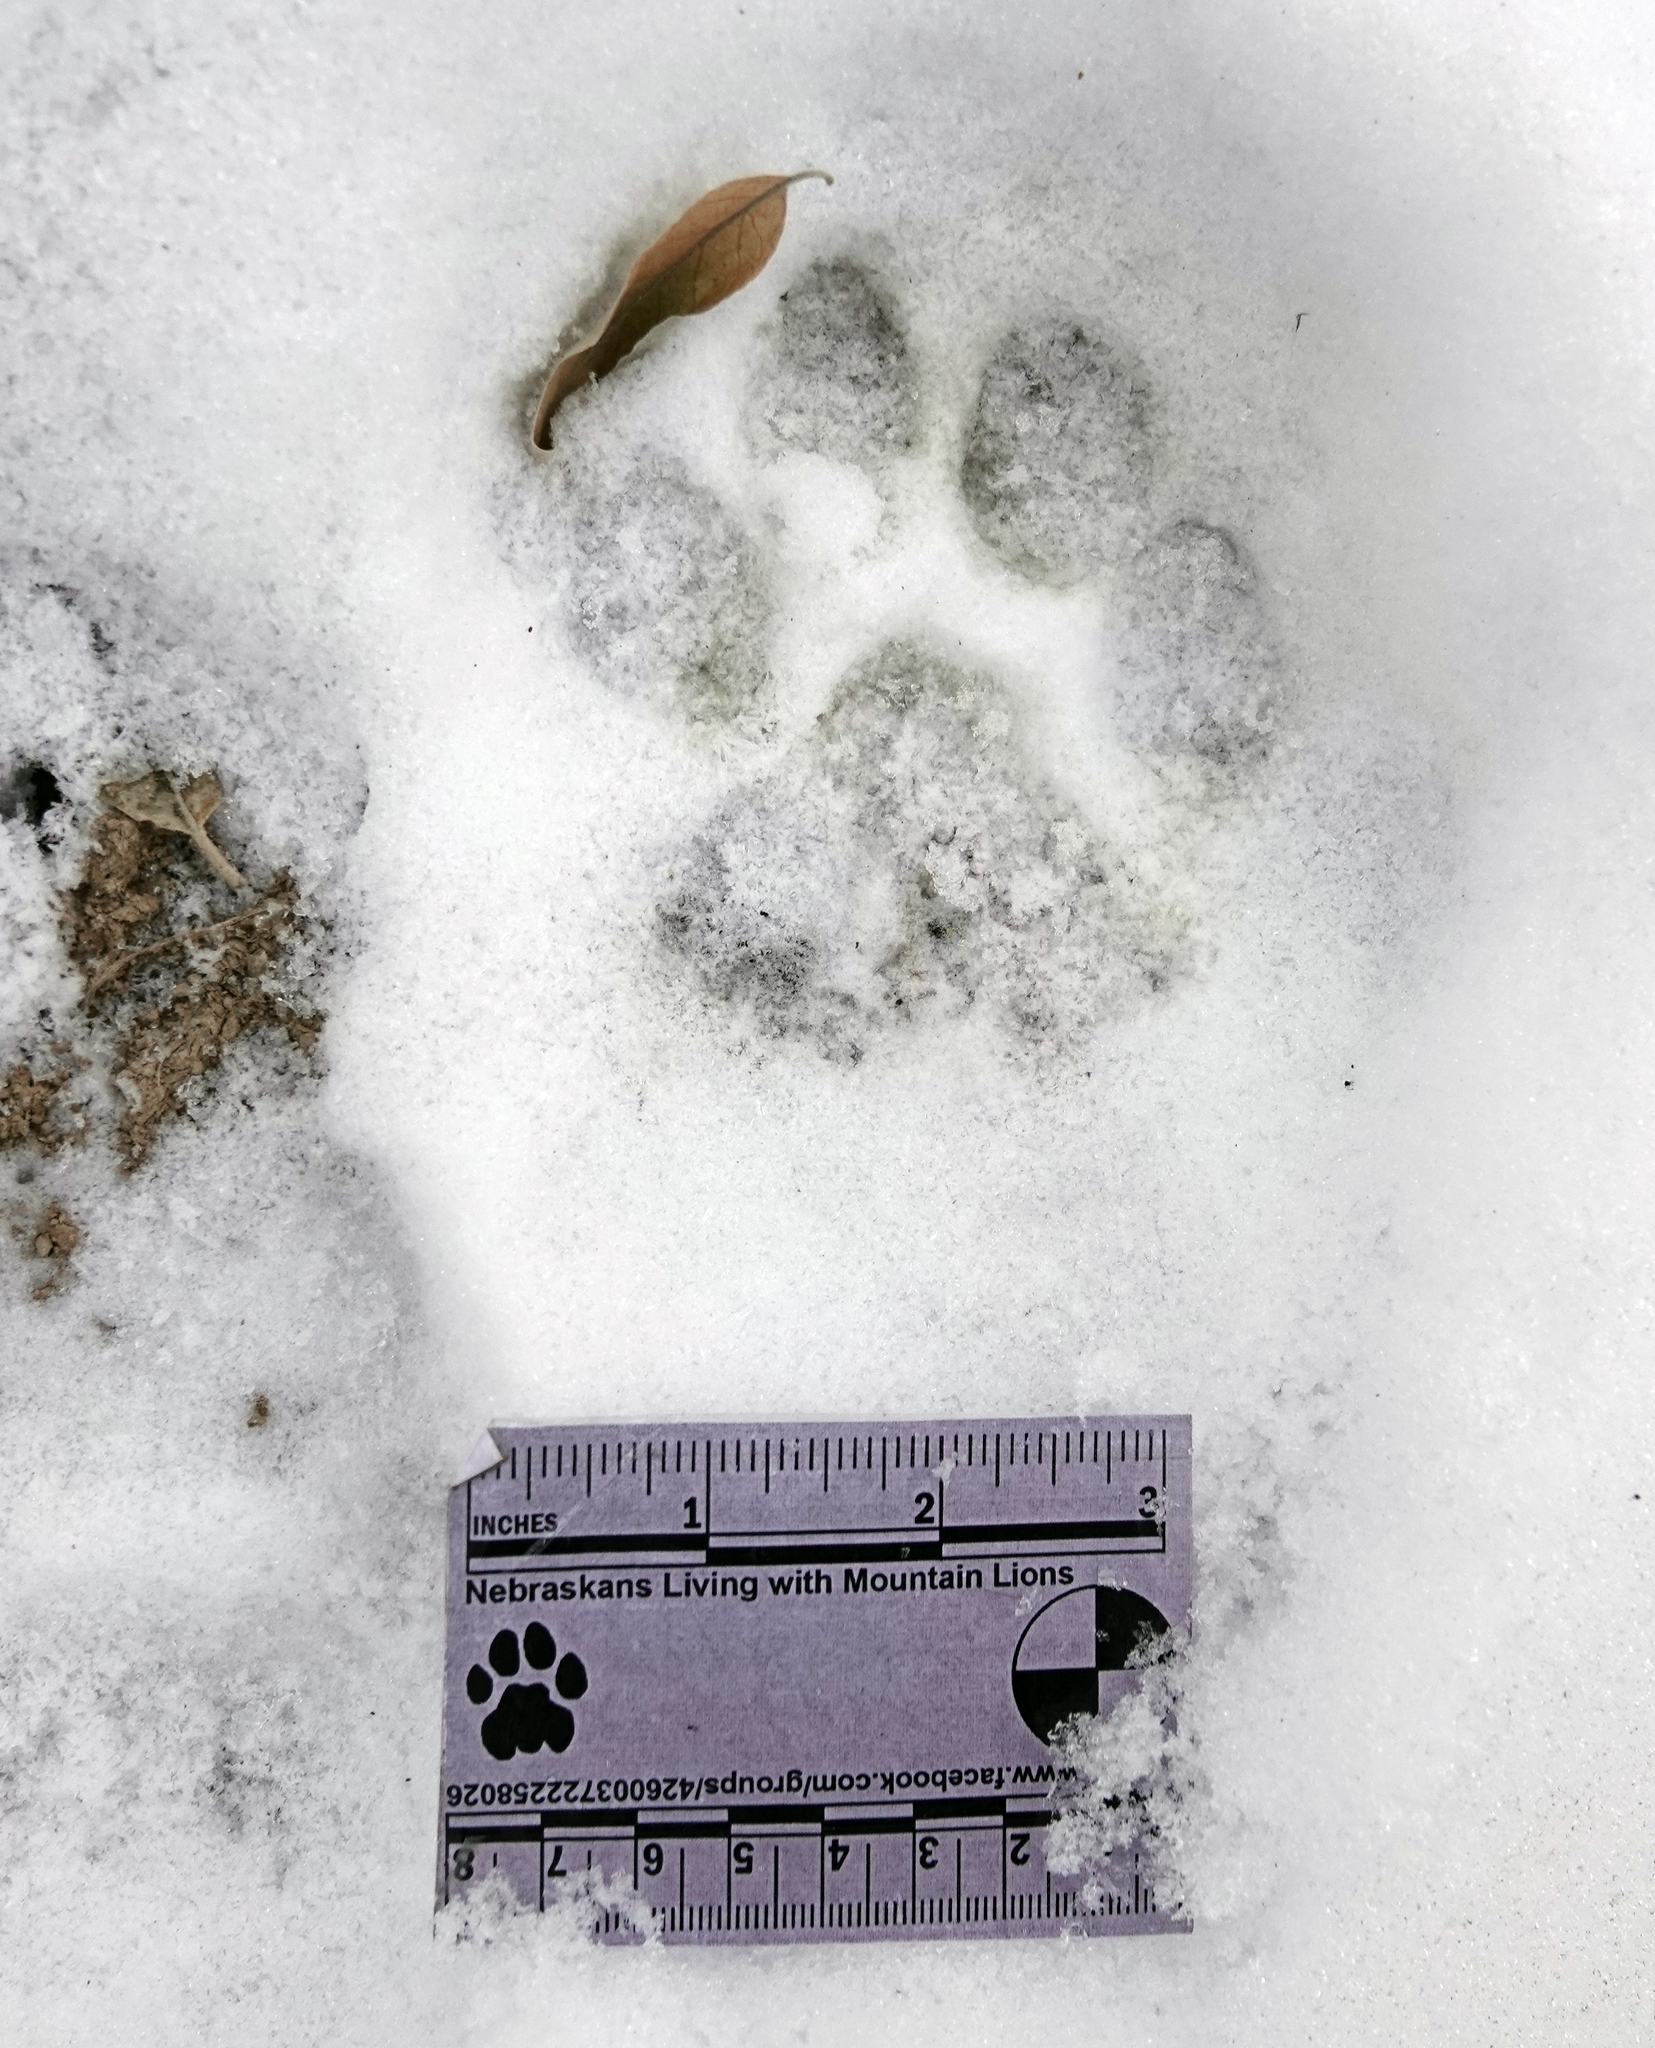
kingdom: Animalia
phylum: Chordata
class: Mammalia
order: Carnivora
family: Felidae
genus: Puma
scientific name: Puma concolor
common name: Puma
